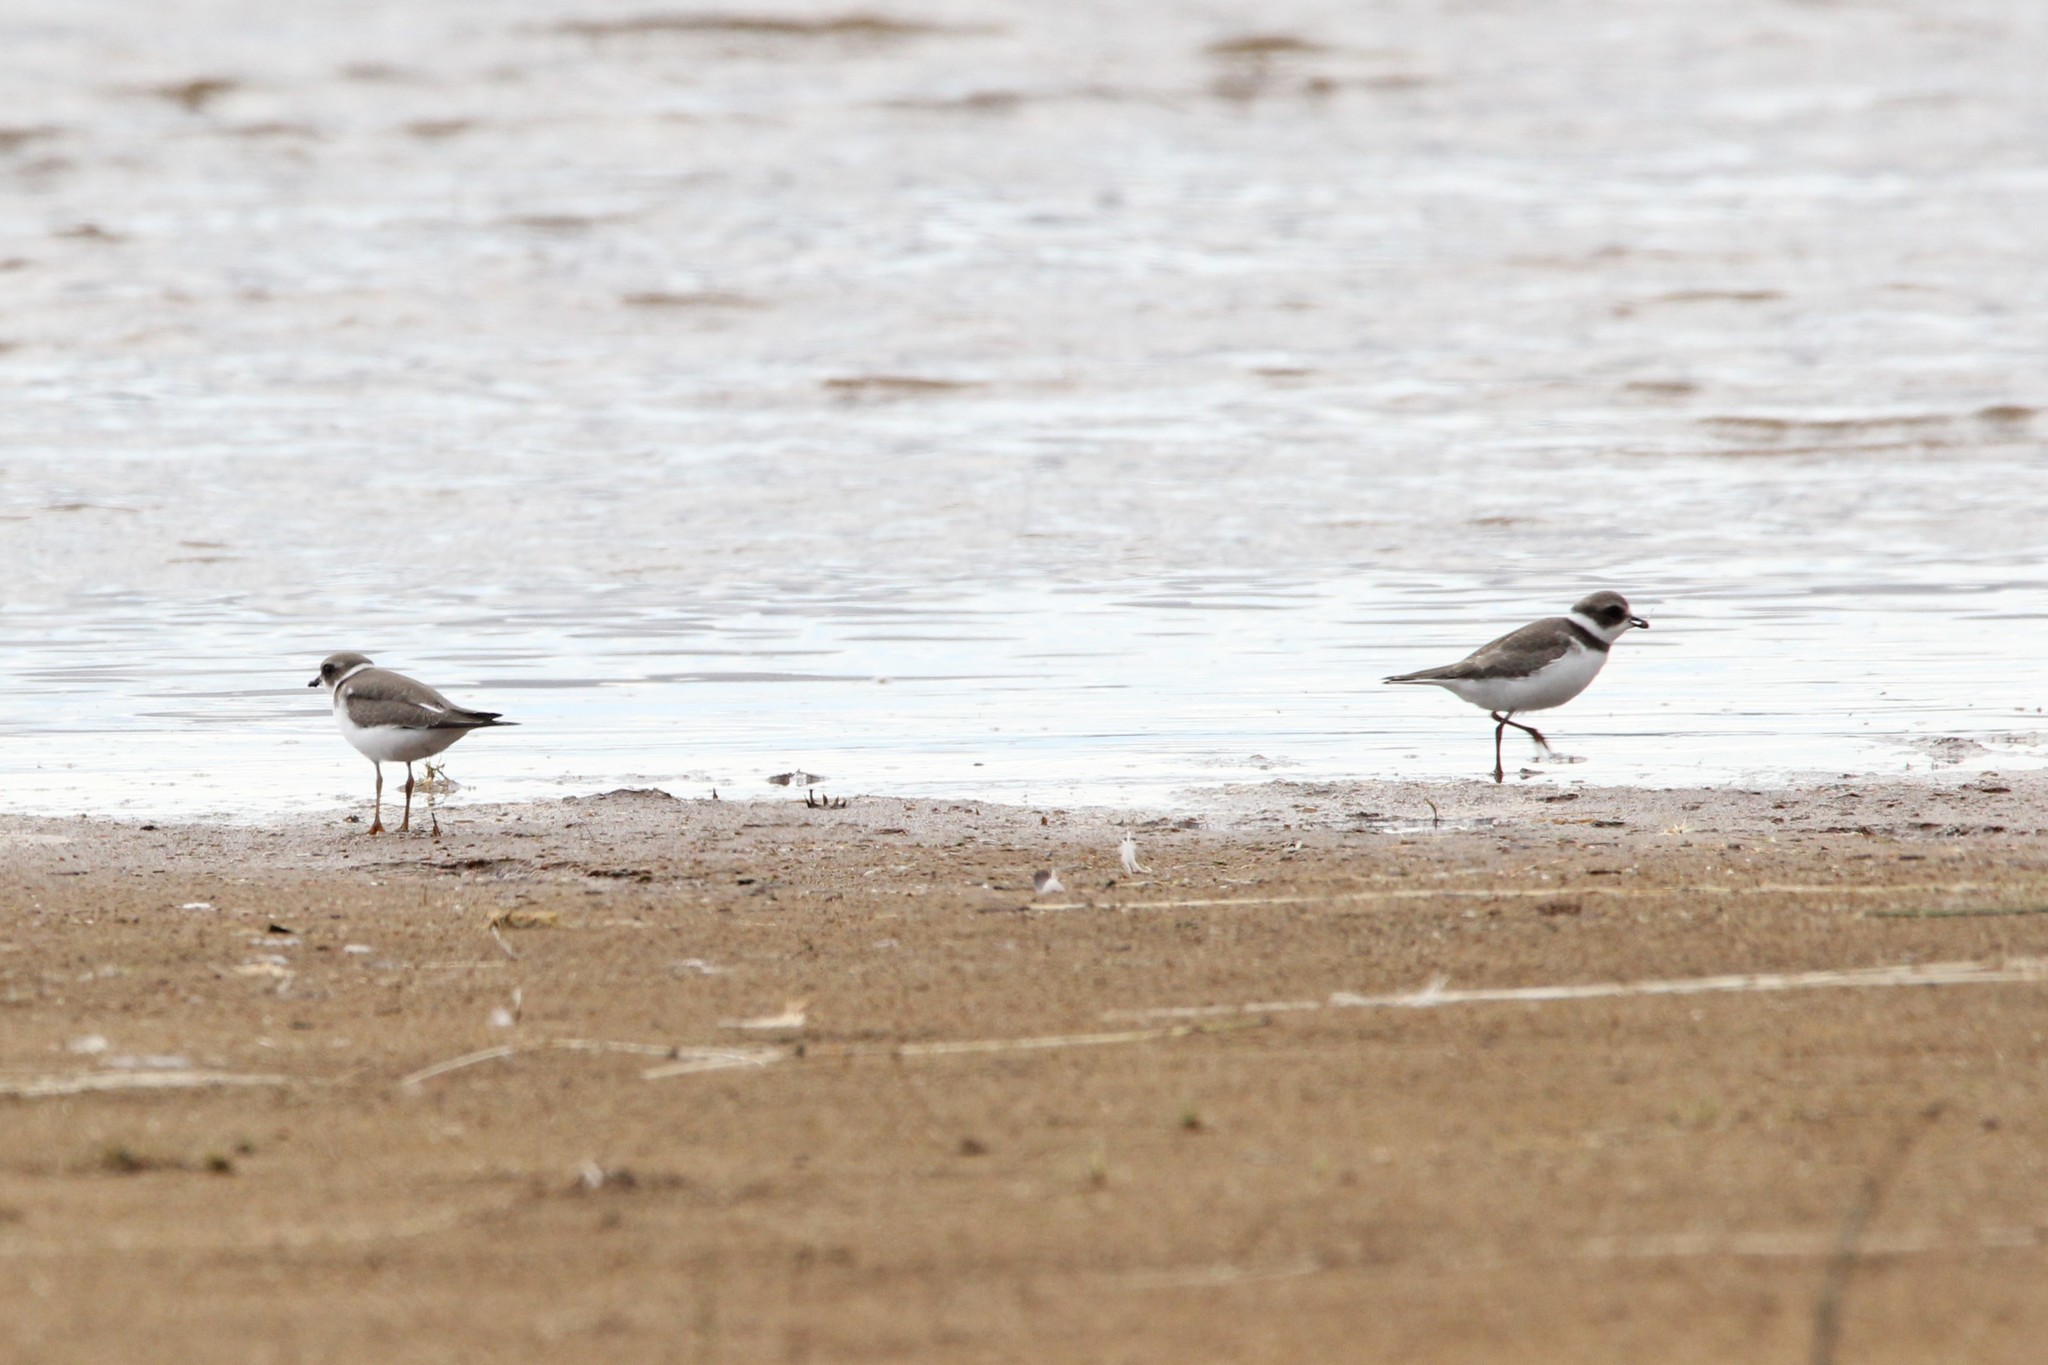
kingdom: Animalia
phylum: Chordata
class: Aves
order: Charadriiformes
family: Charadriidae
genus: Charadrius
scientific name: Charadrius semipalmatus
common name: Semipalmated plover
